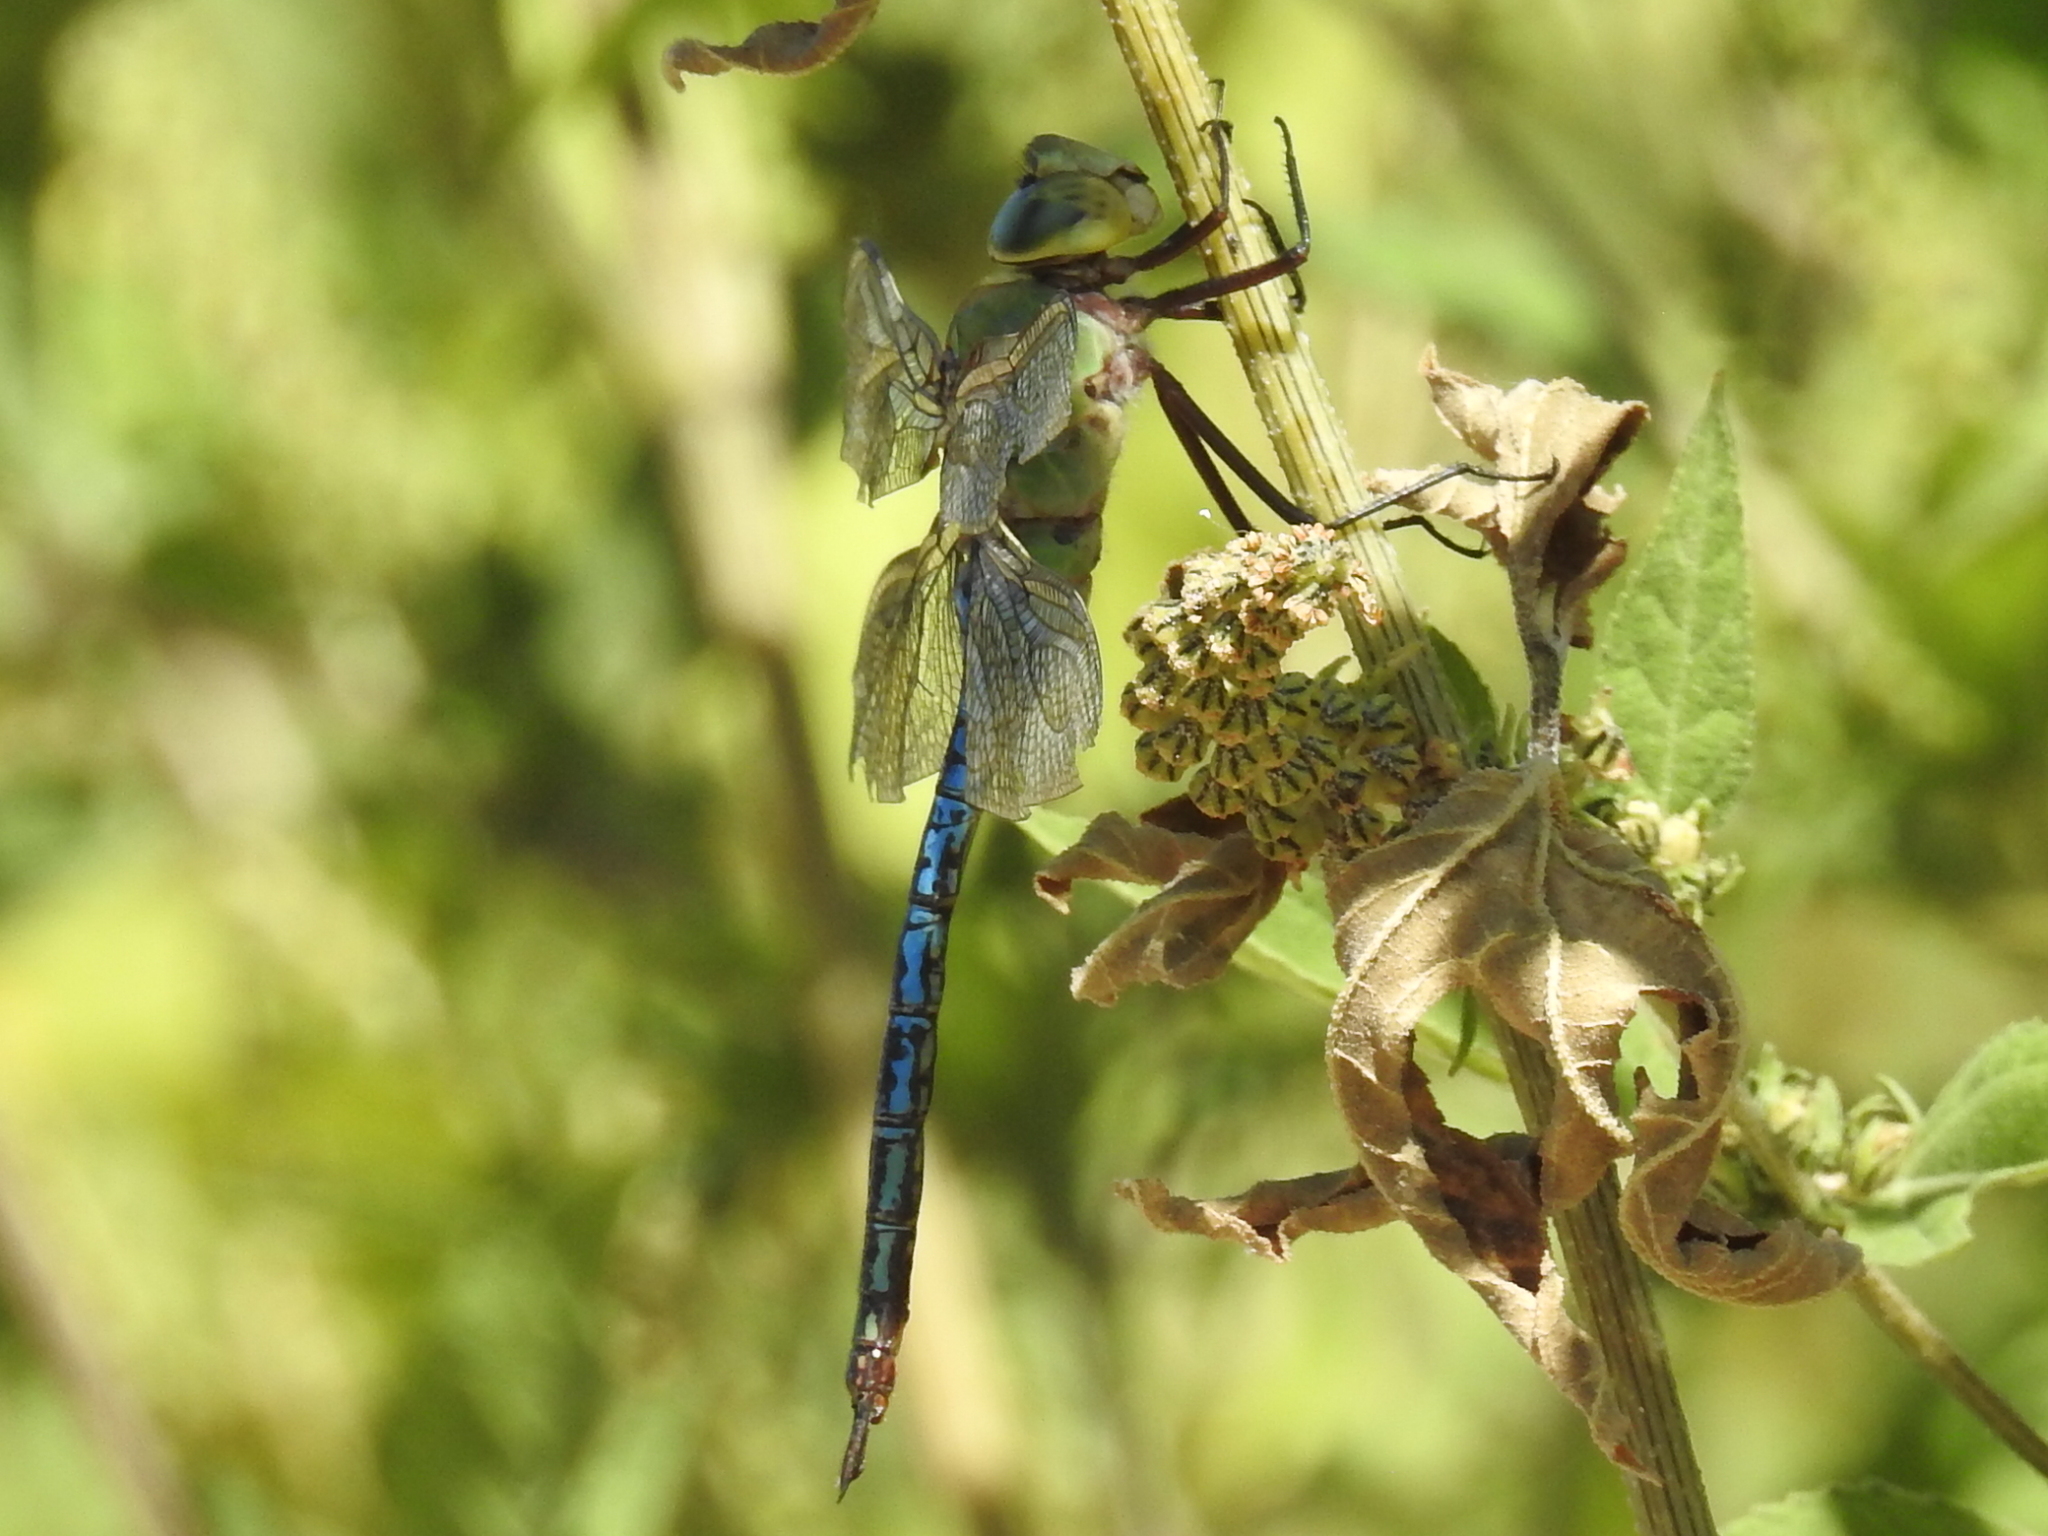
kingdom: Animalia
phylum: Arthropoda
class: Insecta
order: Odonata
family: Aeshnidae
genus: Anax
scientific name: Anax junius
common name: Common green darner
